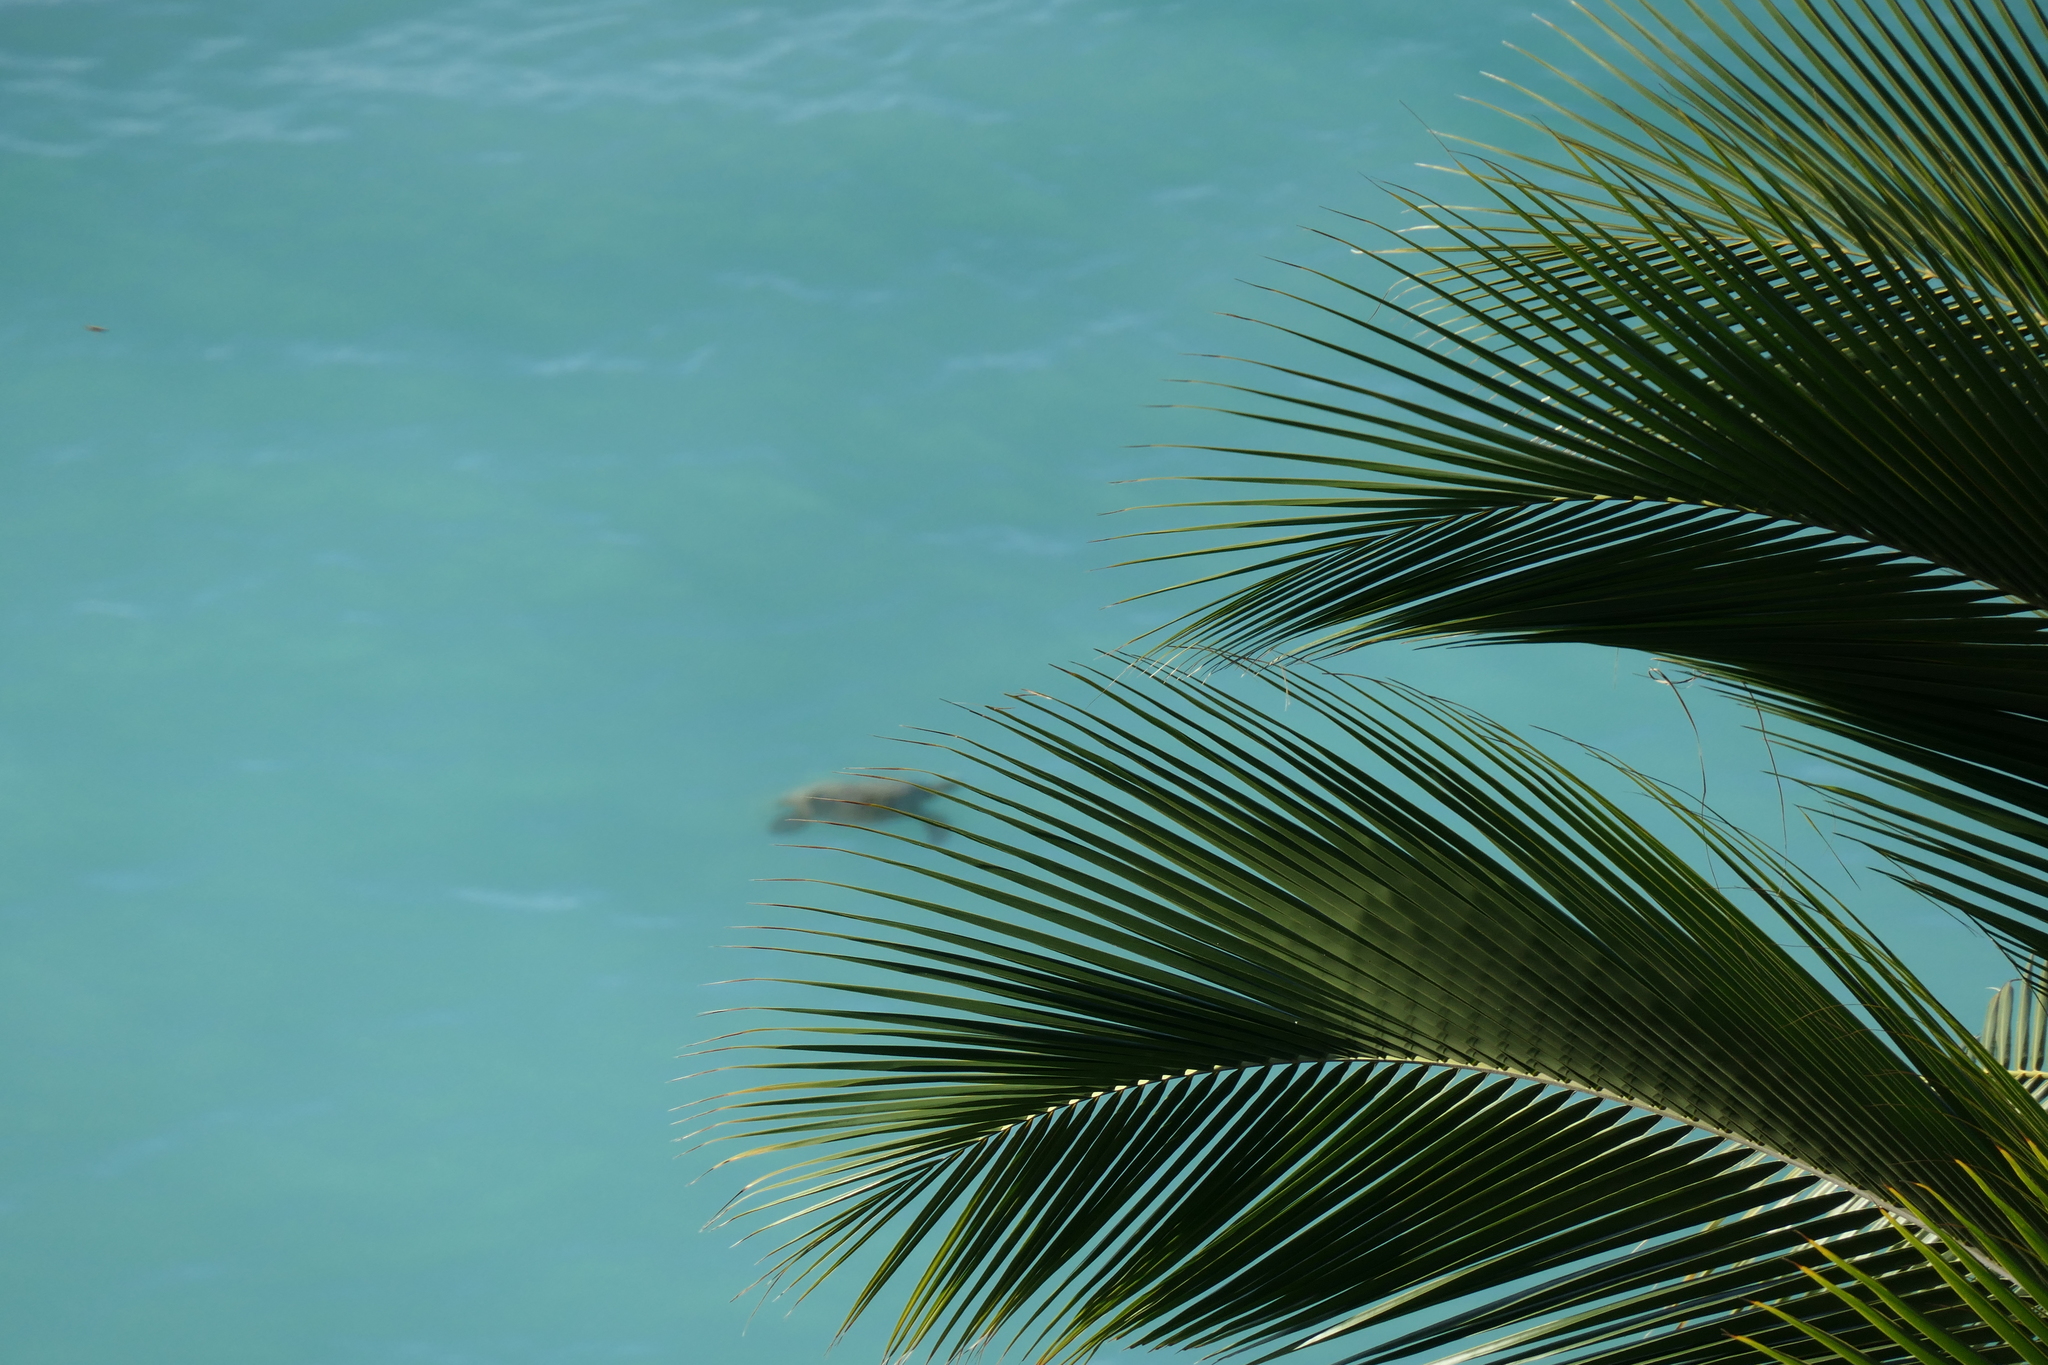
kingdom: Animalia
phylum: Chordata
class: Testudines
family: Cheloniidae
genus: Chelonia
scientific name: Chelonia mydas
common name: Green turtle
